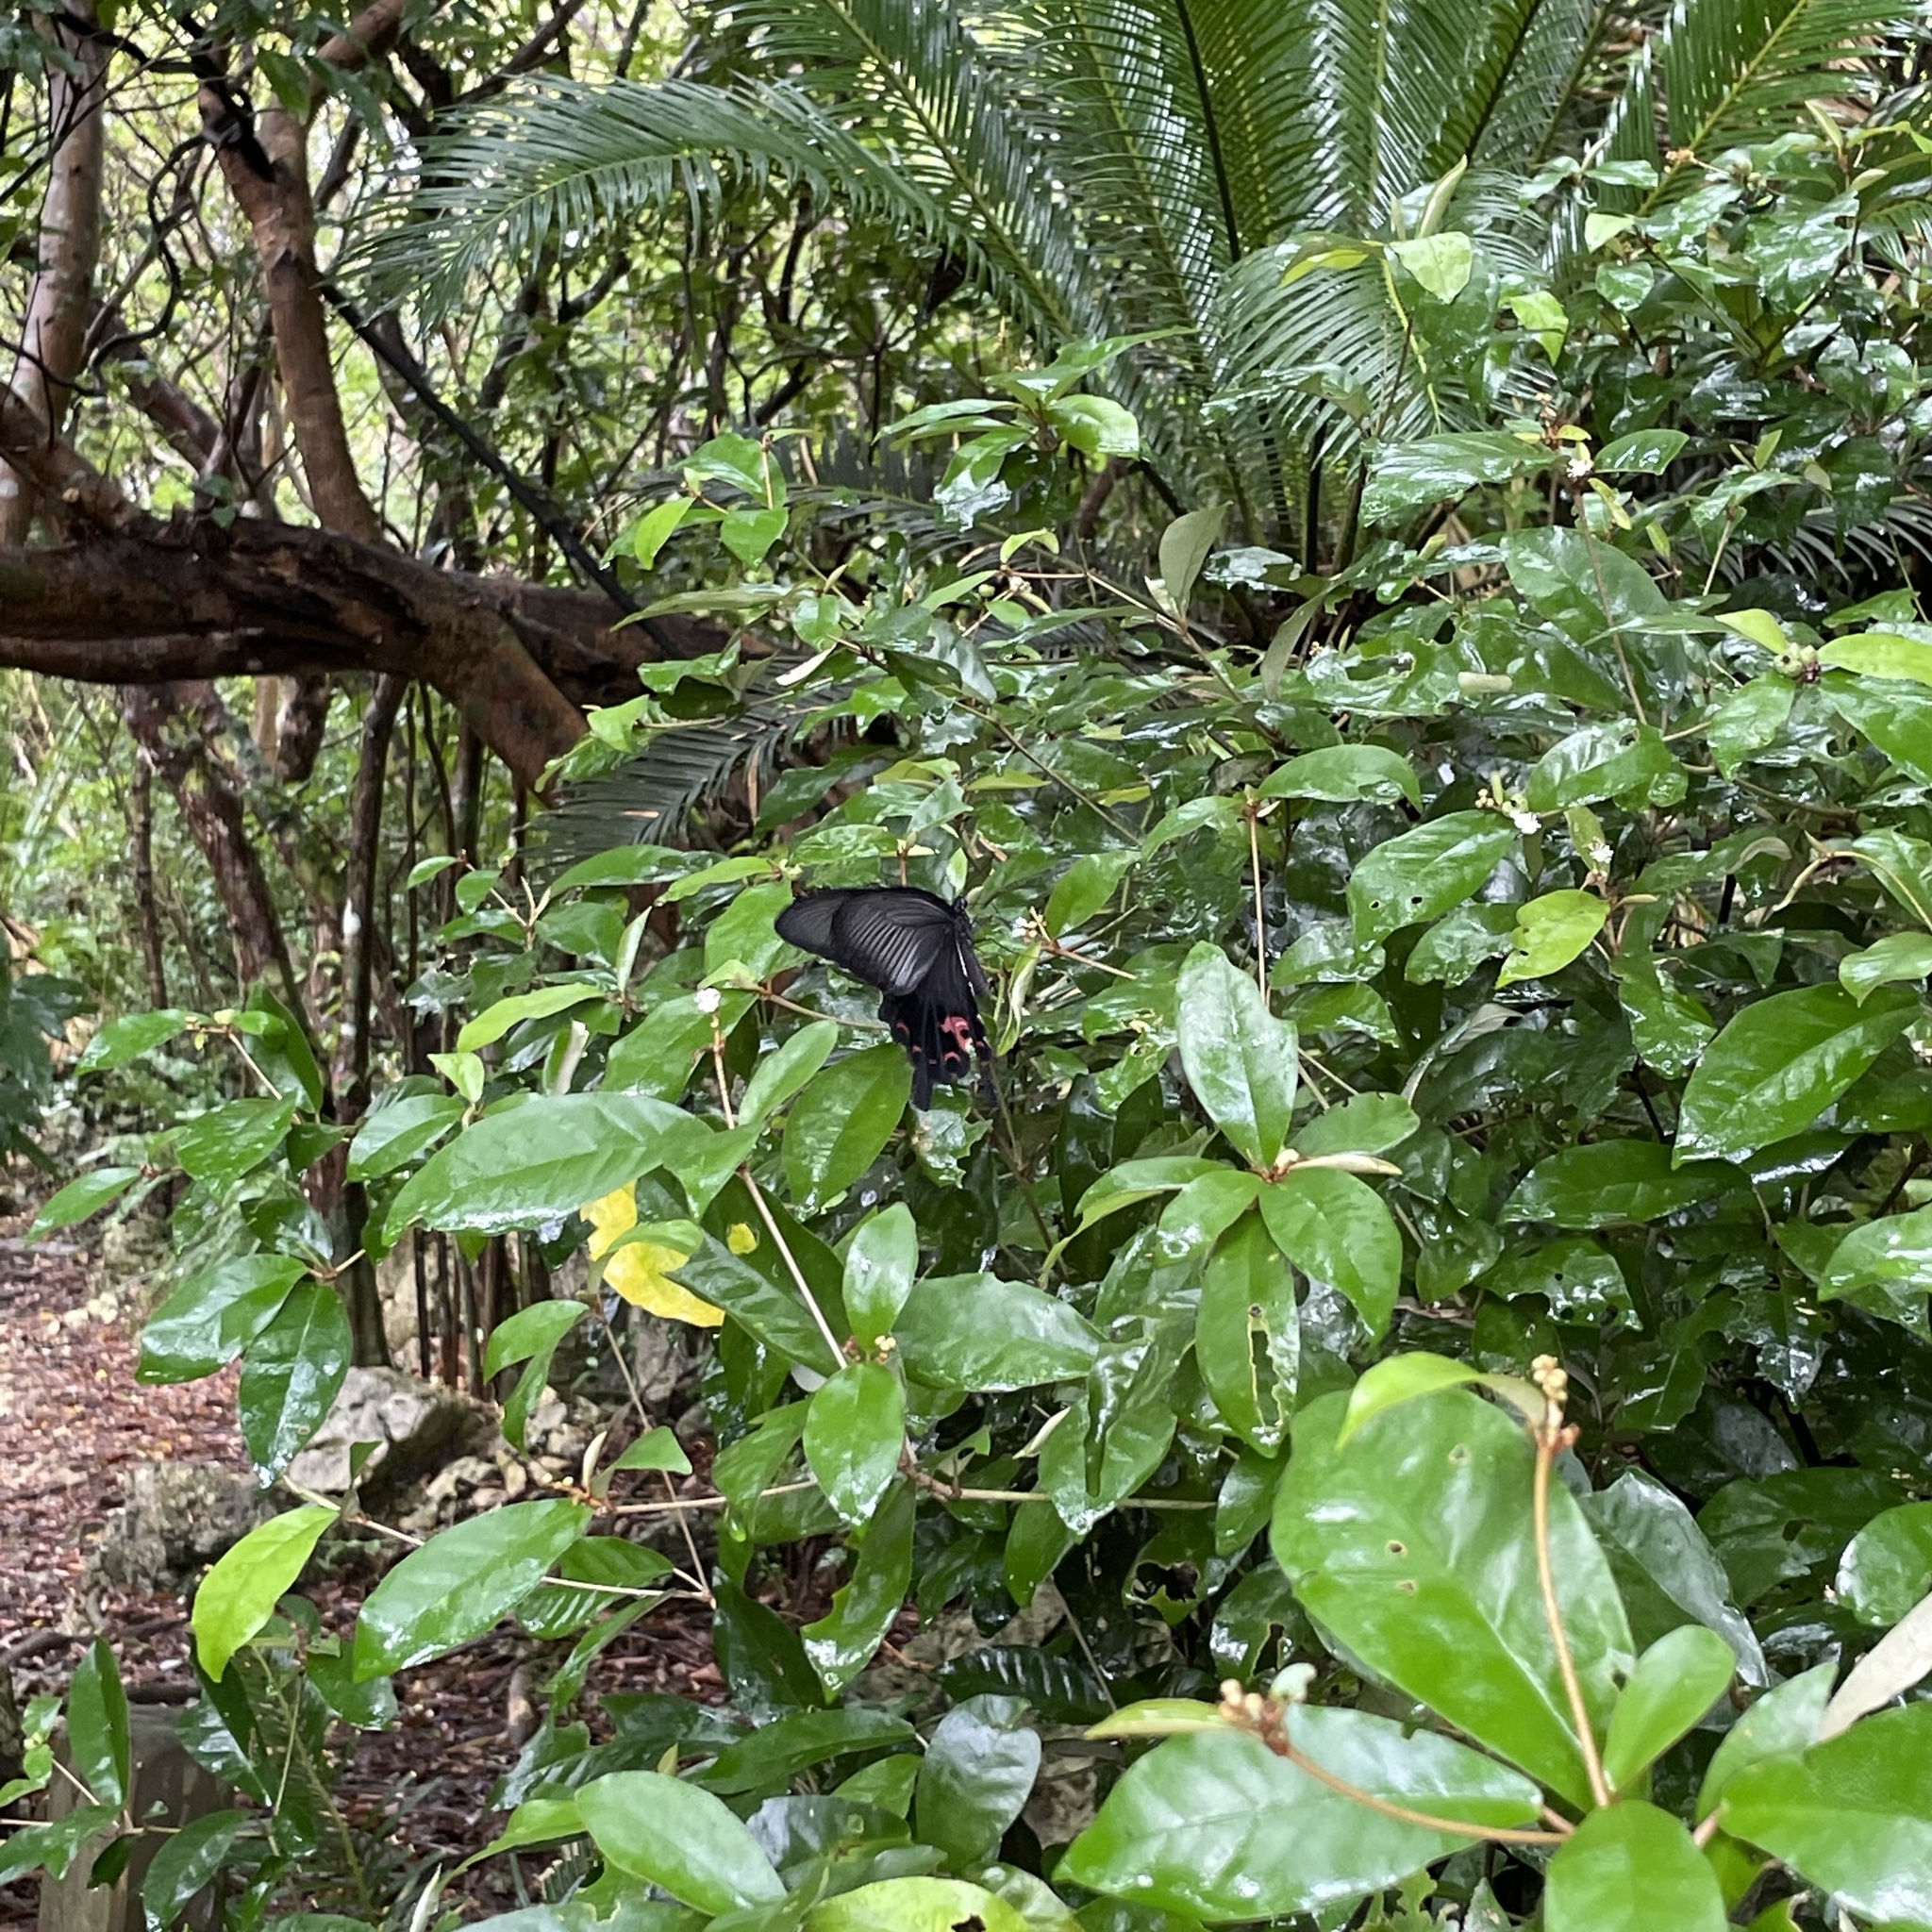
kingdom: Animalia
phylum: Arthropoda
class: Insecta
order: Lepidoptera
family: Papilionidae
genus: Papilio
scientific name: Papilio demetrius
